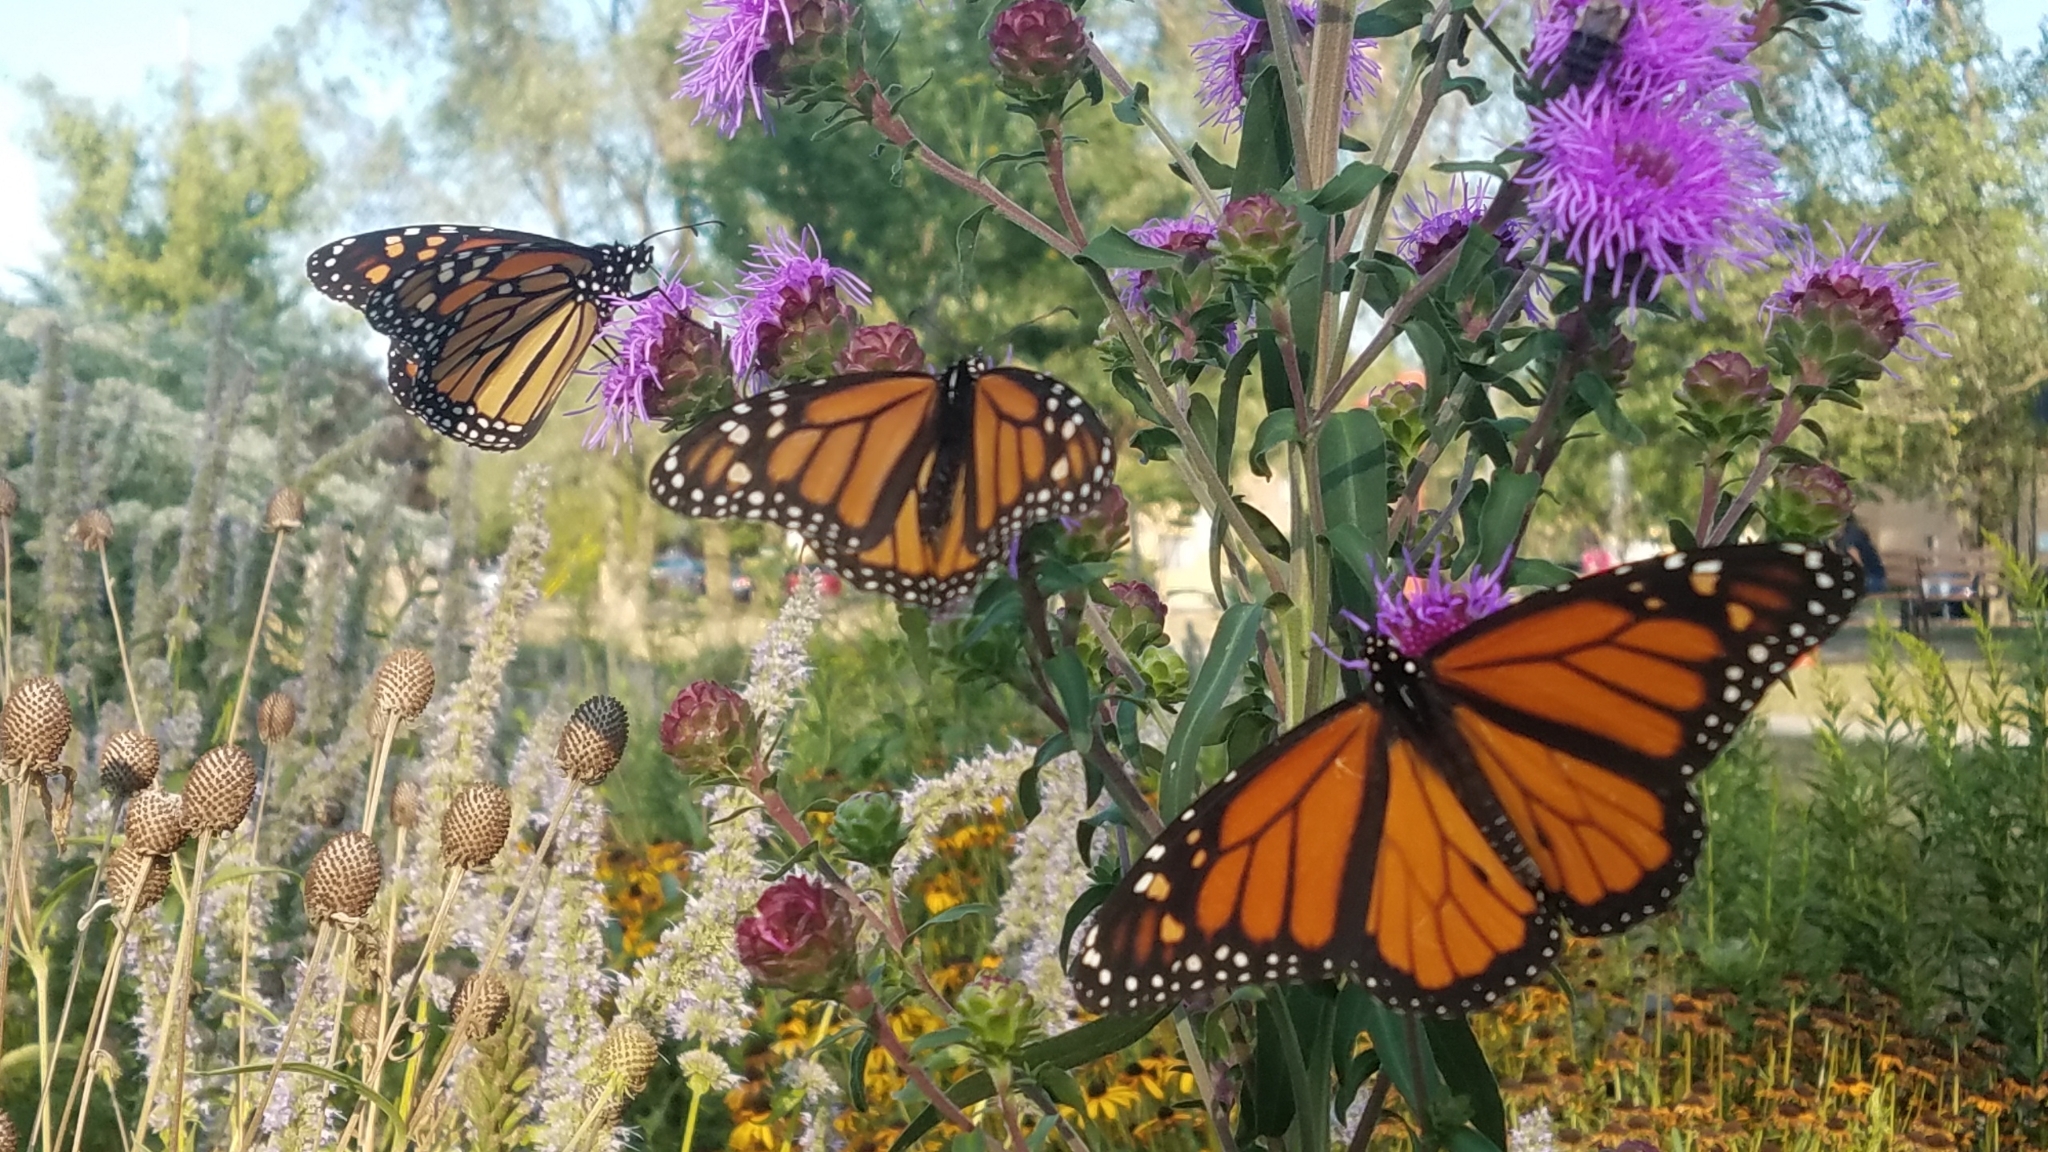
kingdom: Animalia
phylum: Arthropoda
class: Insecta
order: Lepidoptera
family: Nymphalidae
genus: Danaus
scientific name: Danaus plexippus
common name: Monarch
